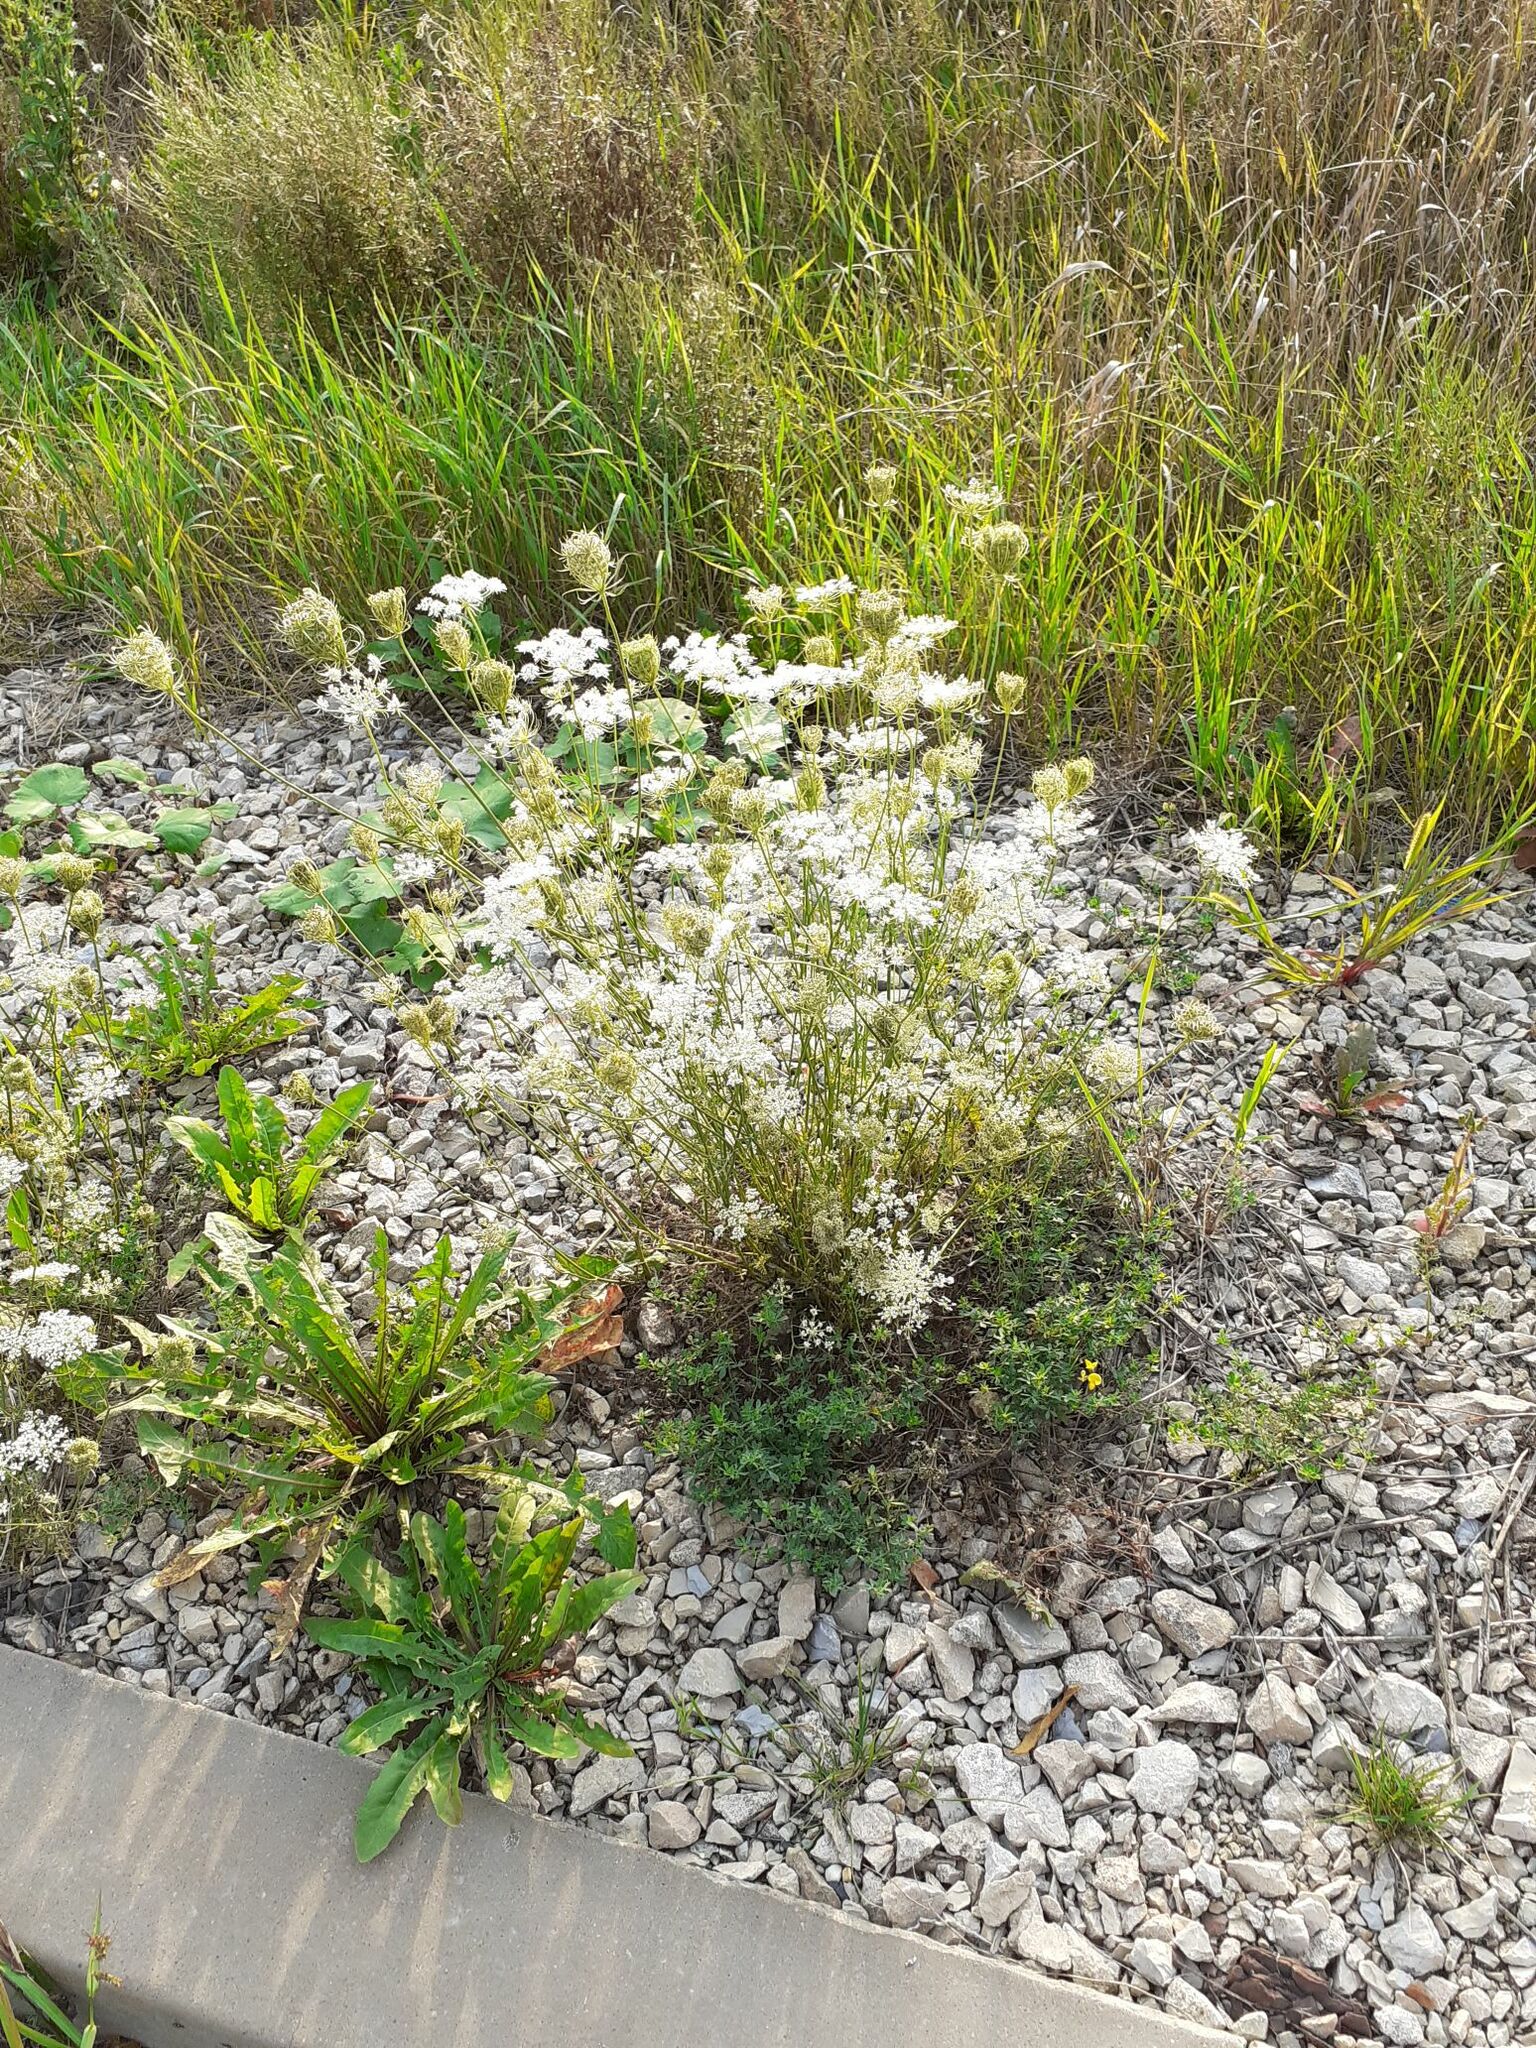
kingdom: Plantae
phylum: Tracheophyta
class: Magnoliopsida
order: Apiales
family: Apiaceae
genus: Daucus
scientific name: Daucus carota
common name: Wild carrot
